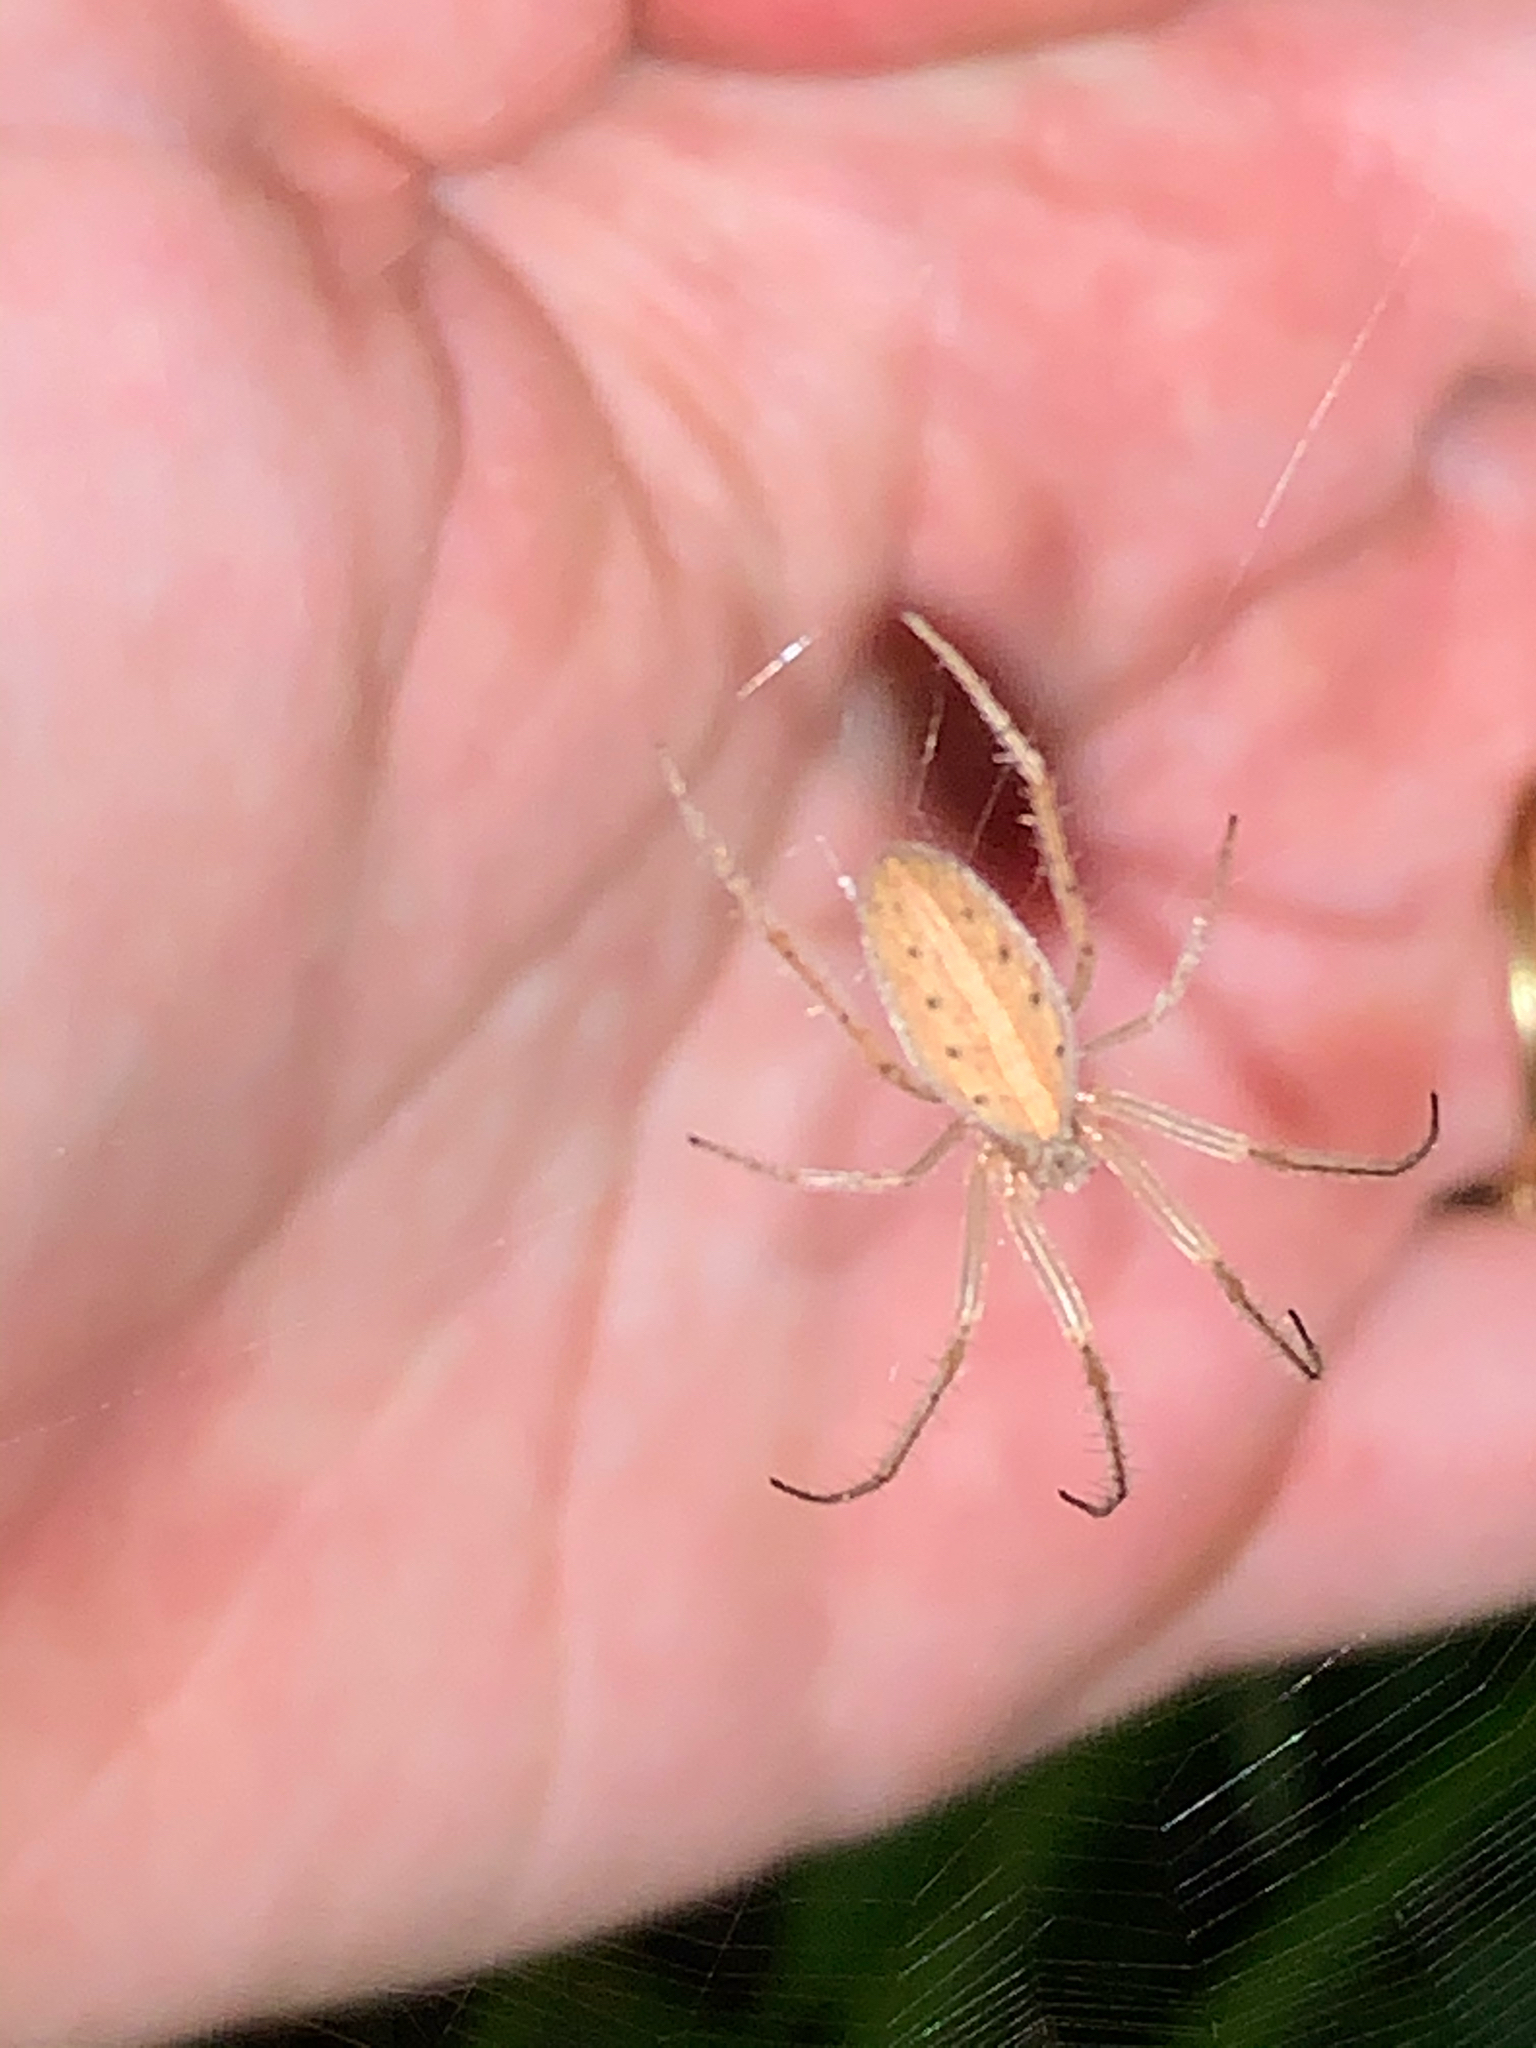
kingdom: Animalia
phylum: Arthropoda
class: Arachnida
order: Araneae
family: Araneidae
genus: Larinia
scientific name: Larinia
